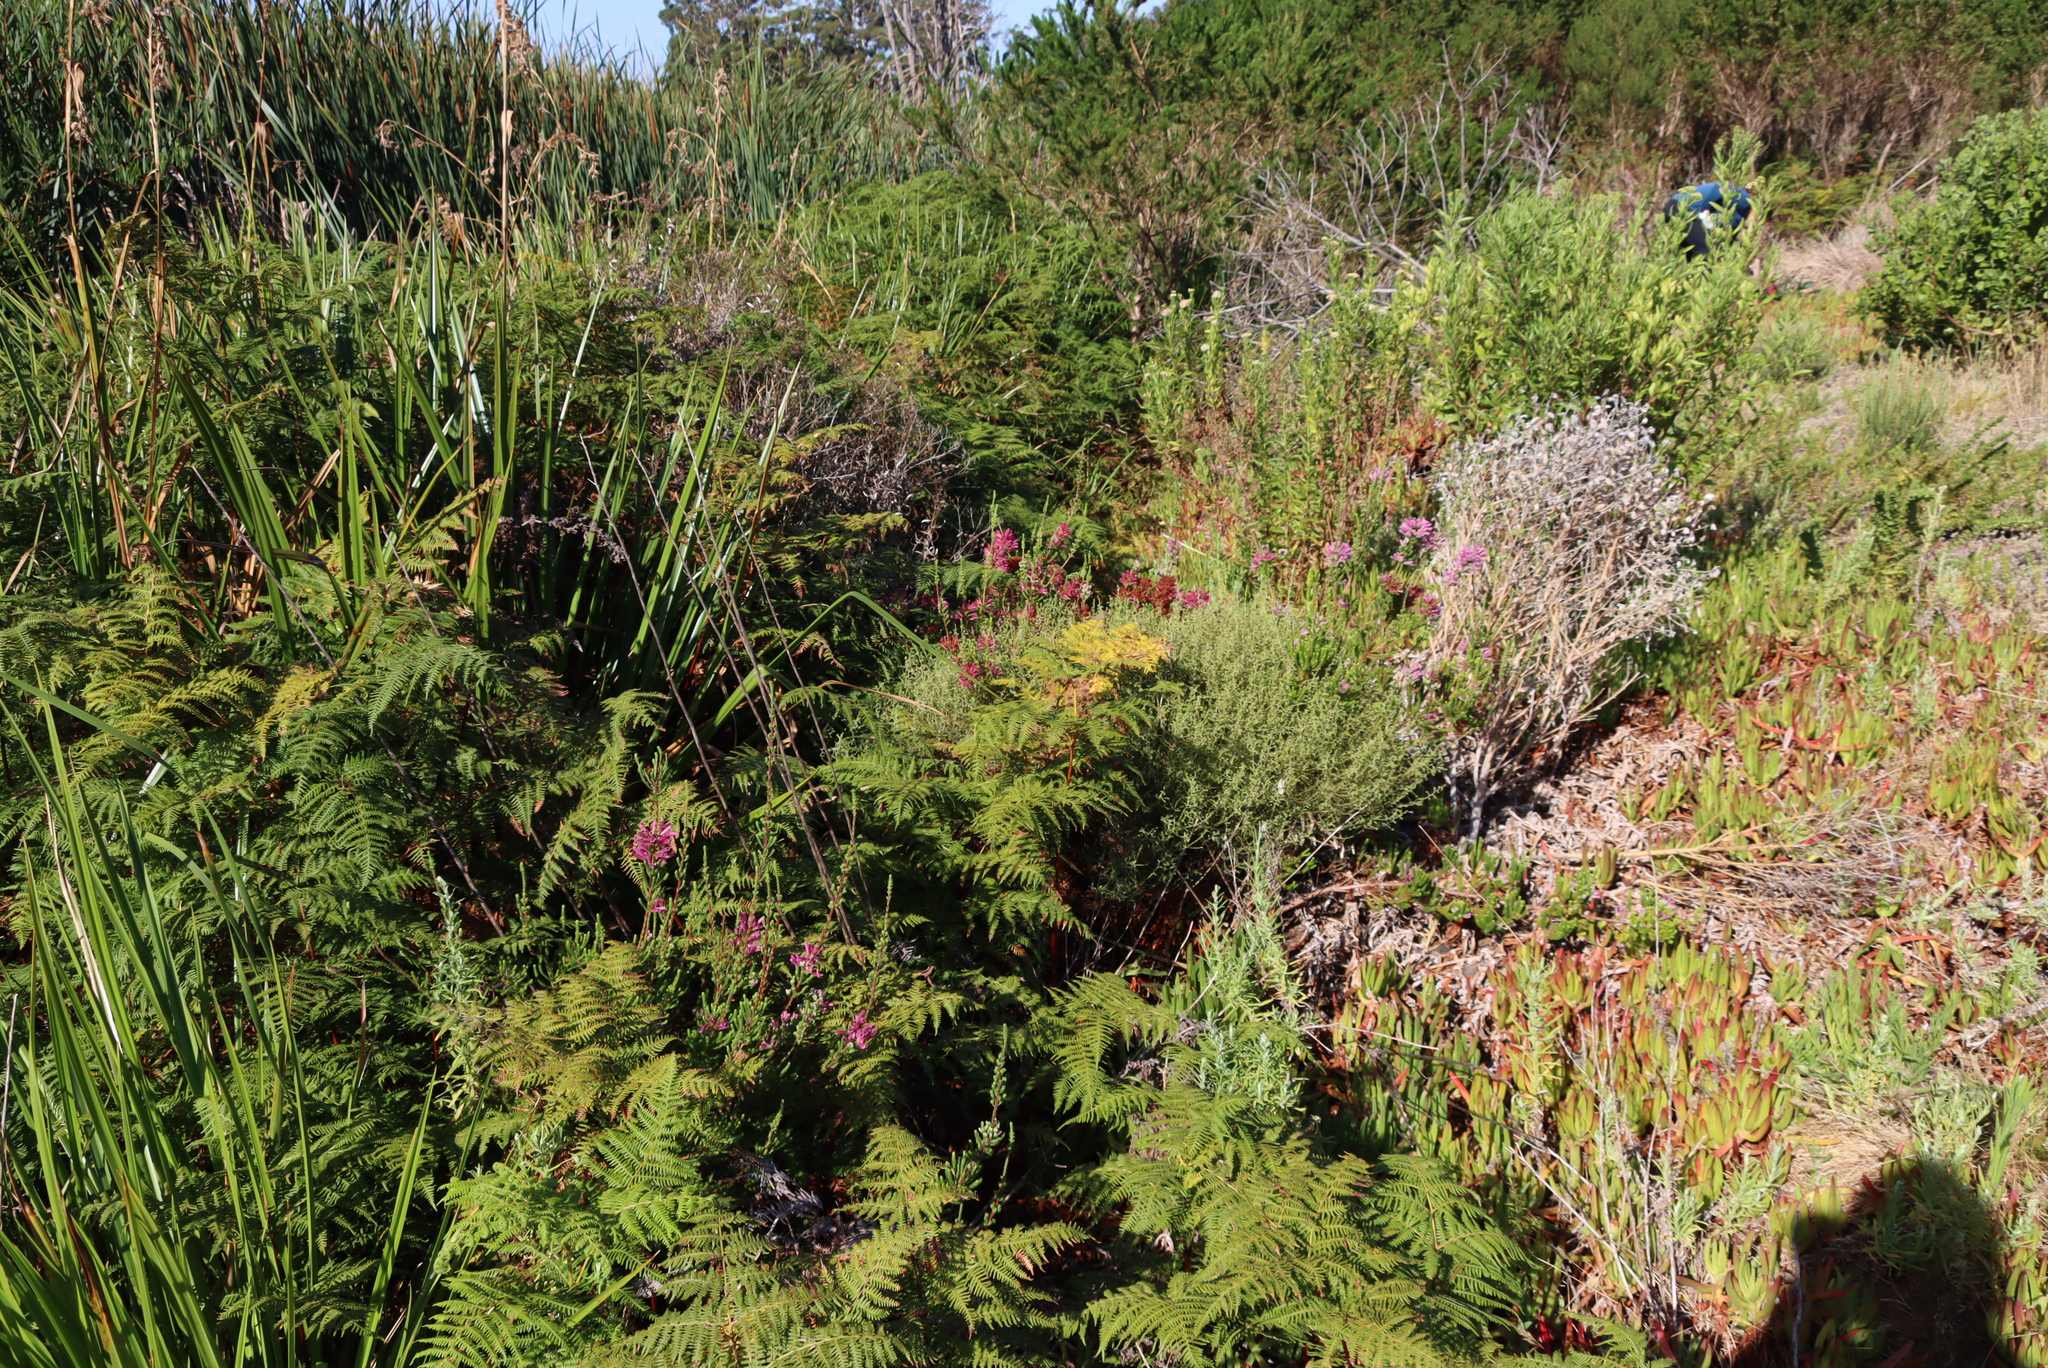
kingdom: Plantae
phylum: Tracheophyta
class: Polypodiopsida
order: Polypodiales
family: Dennstaedtiaceae
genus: Pteridium
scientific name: Pteridium aquilinum
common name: Bracken
